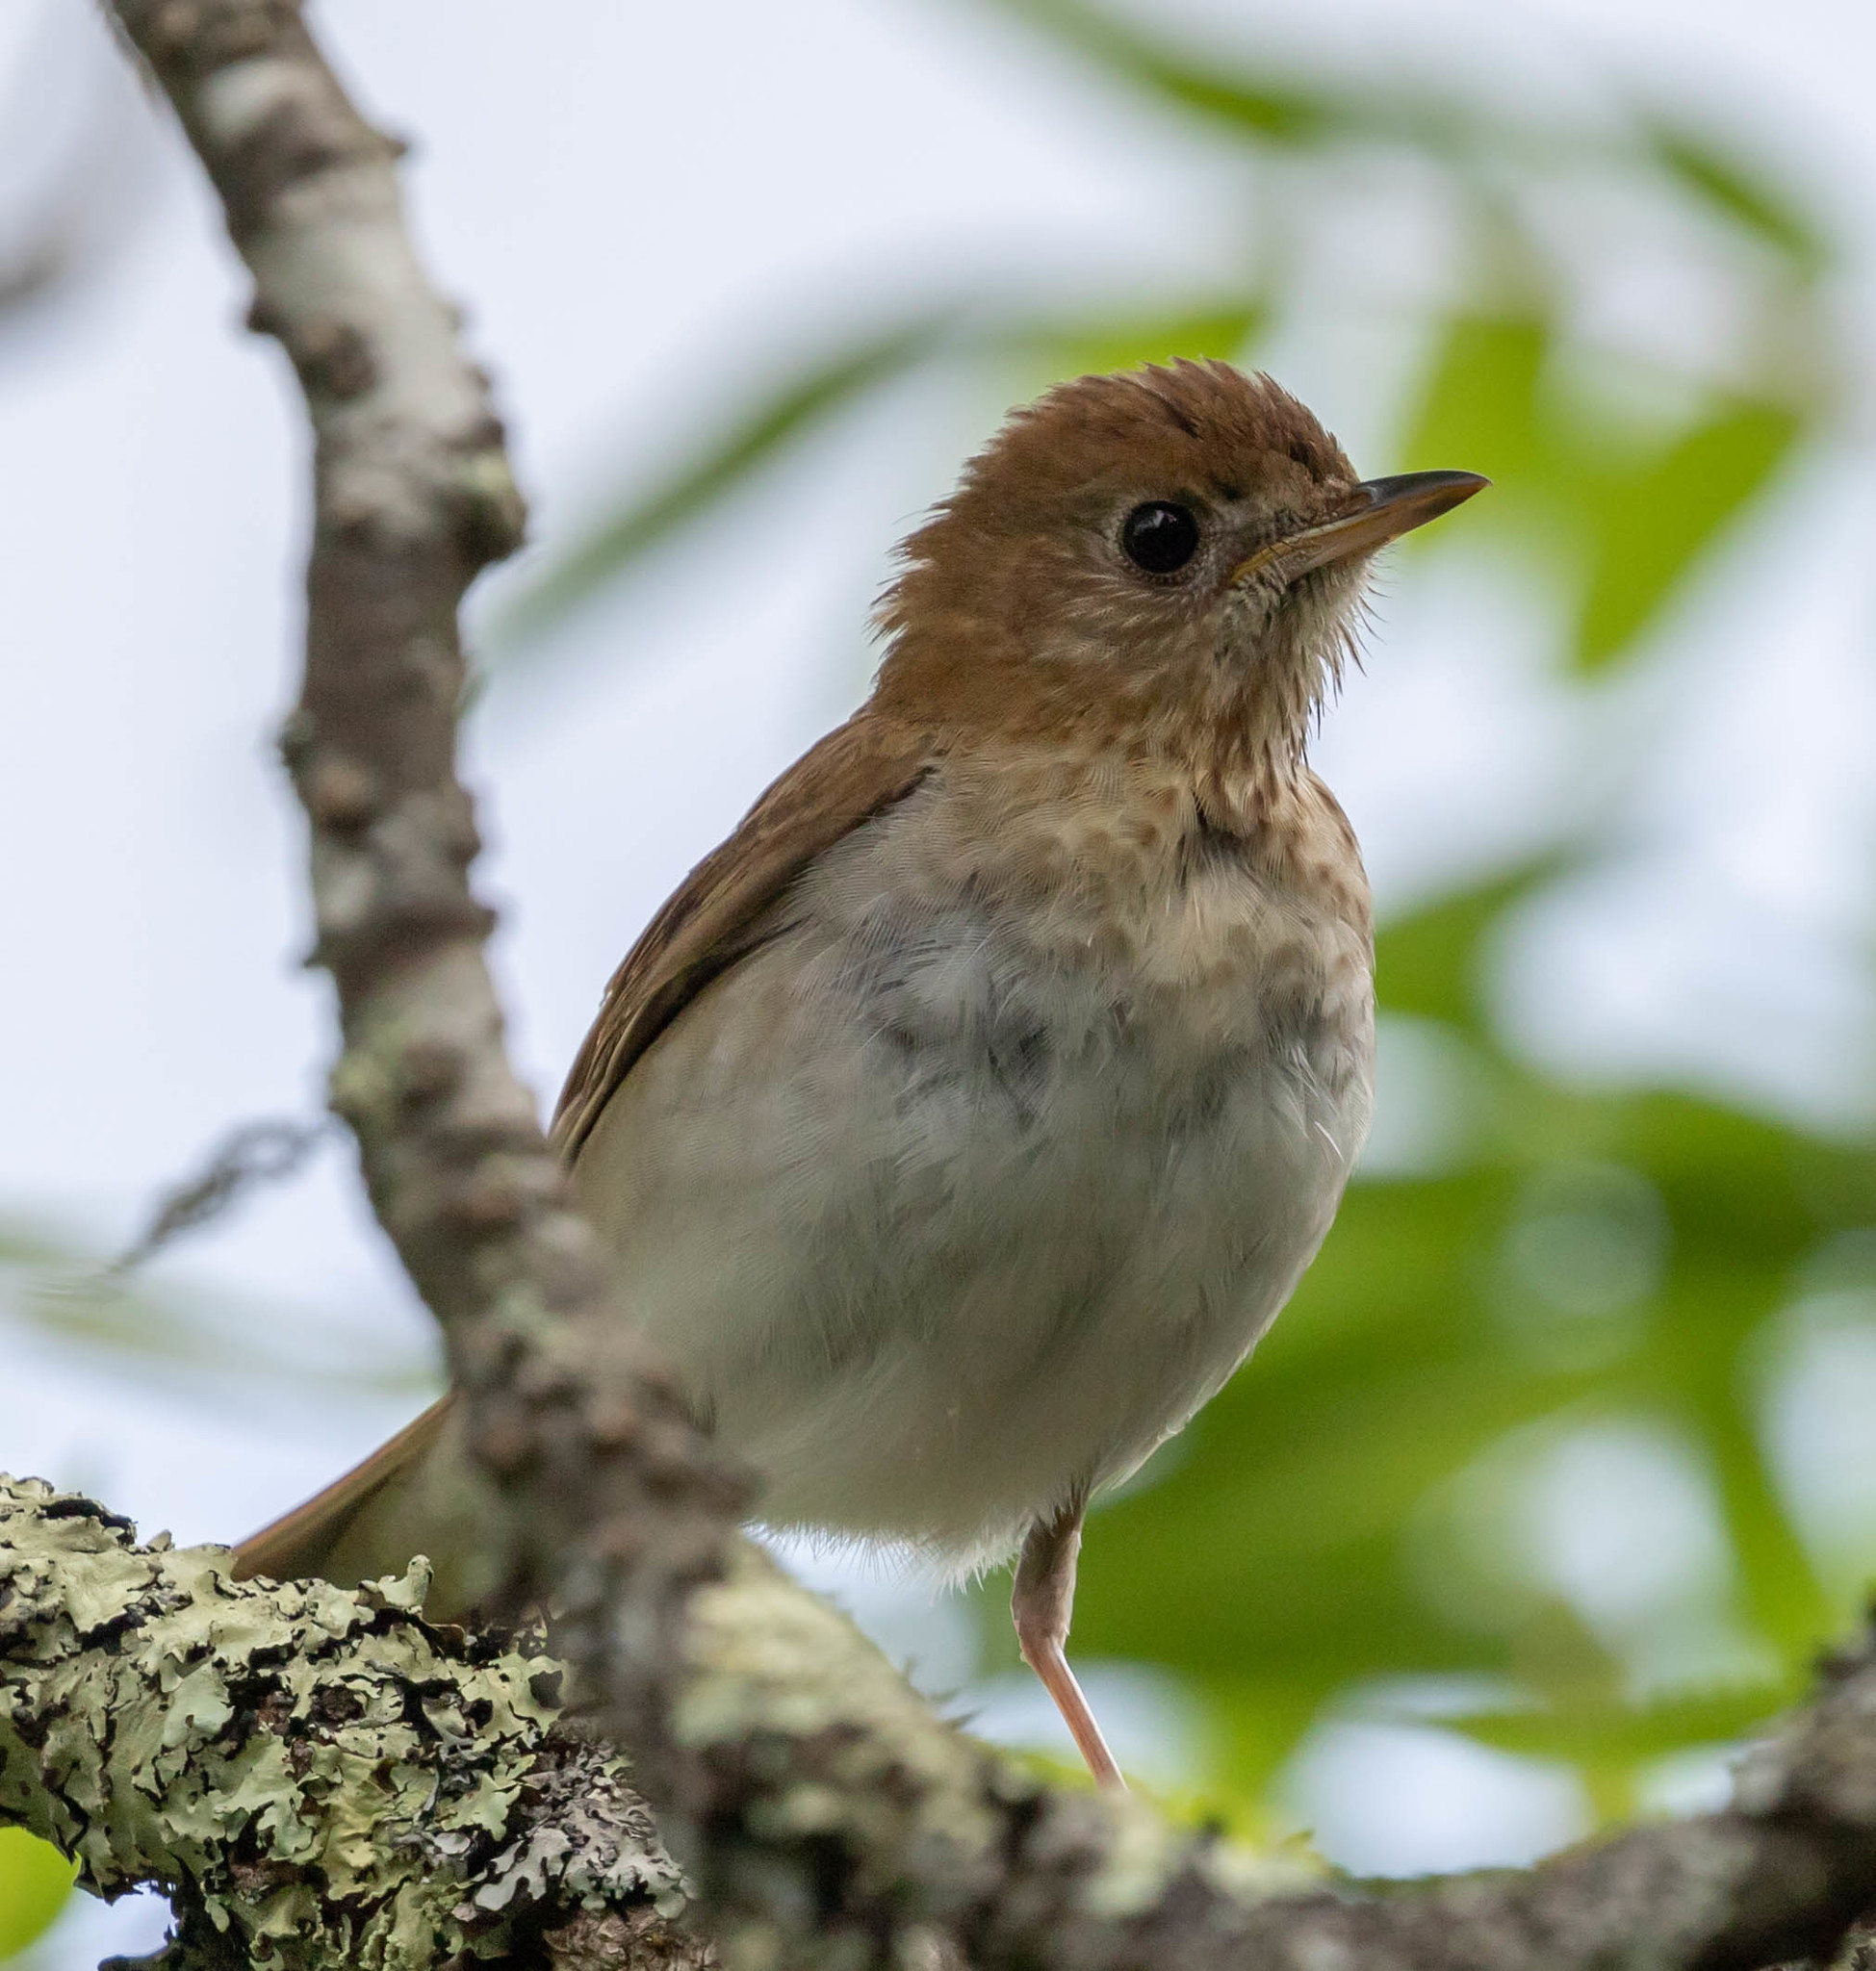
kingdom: Animalia
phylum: Chordata
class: Aves
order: Passeriformes
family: Turdidae
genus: Catharus
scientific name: Catharus fuscescens
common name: Veery
